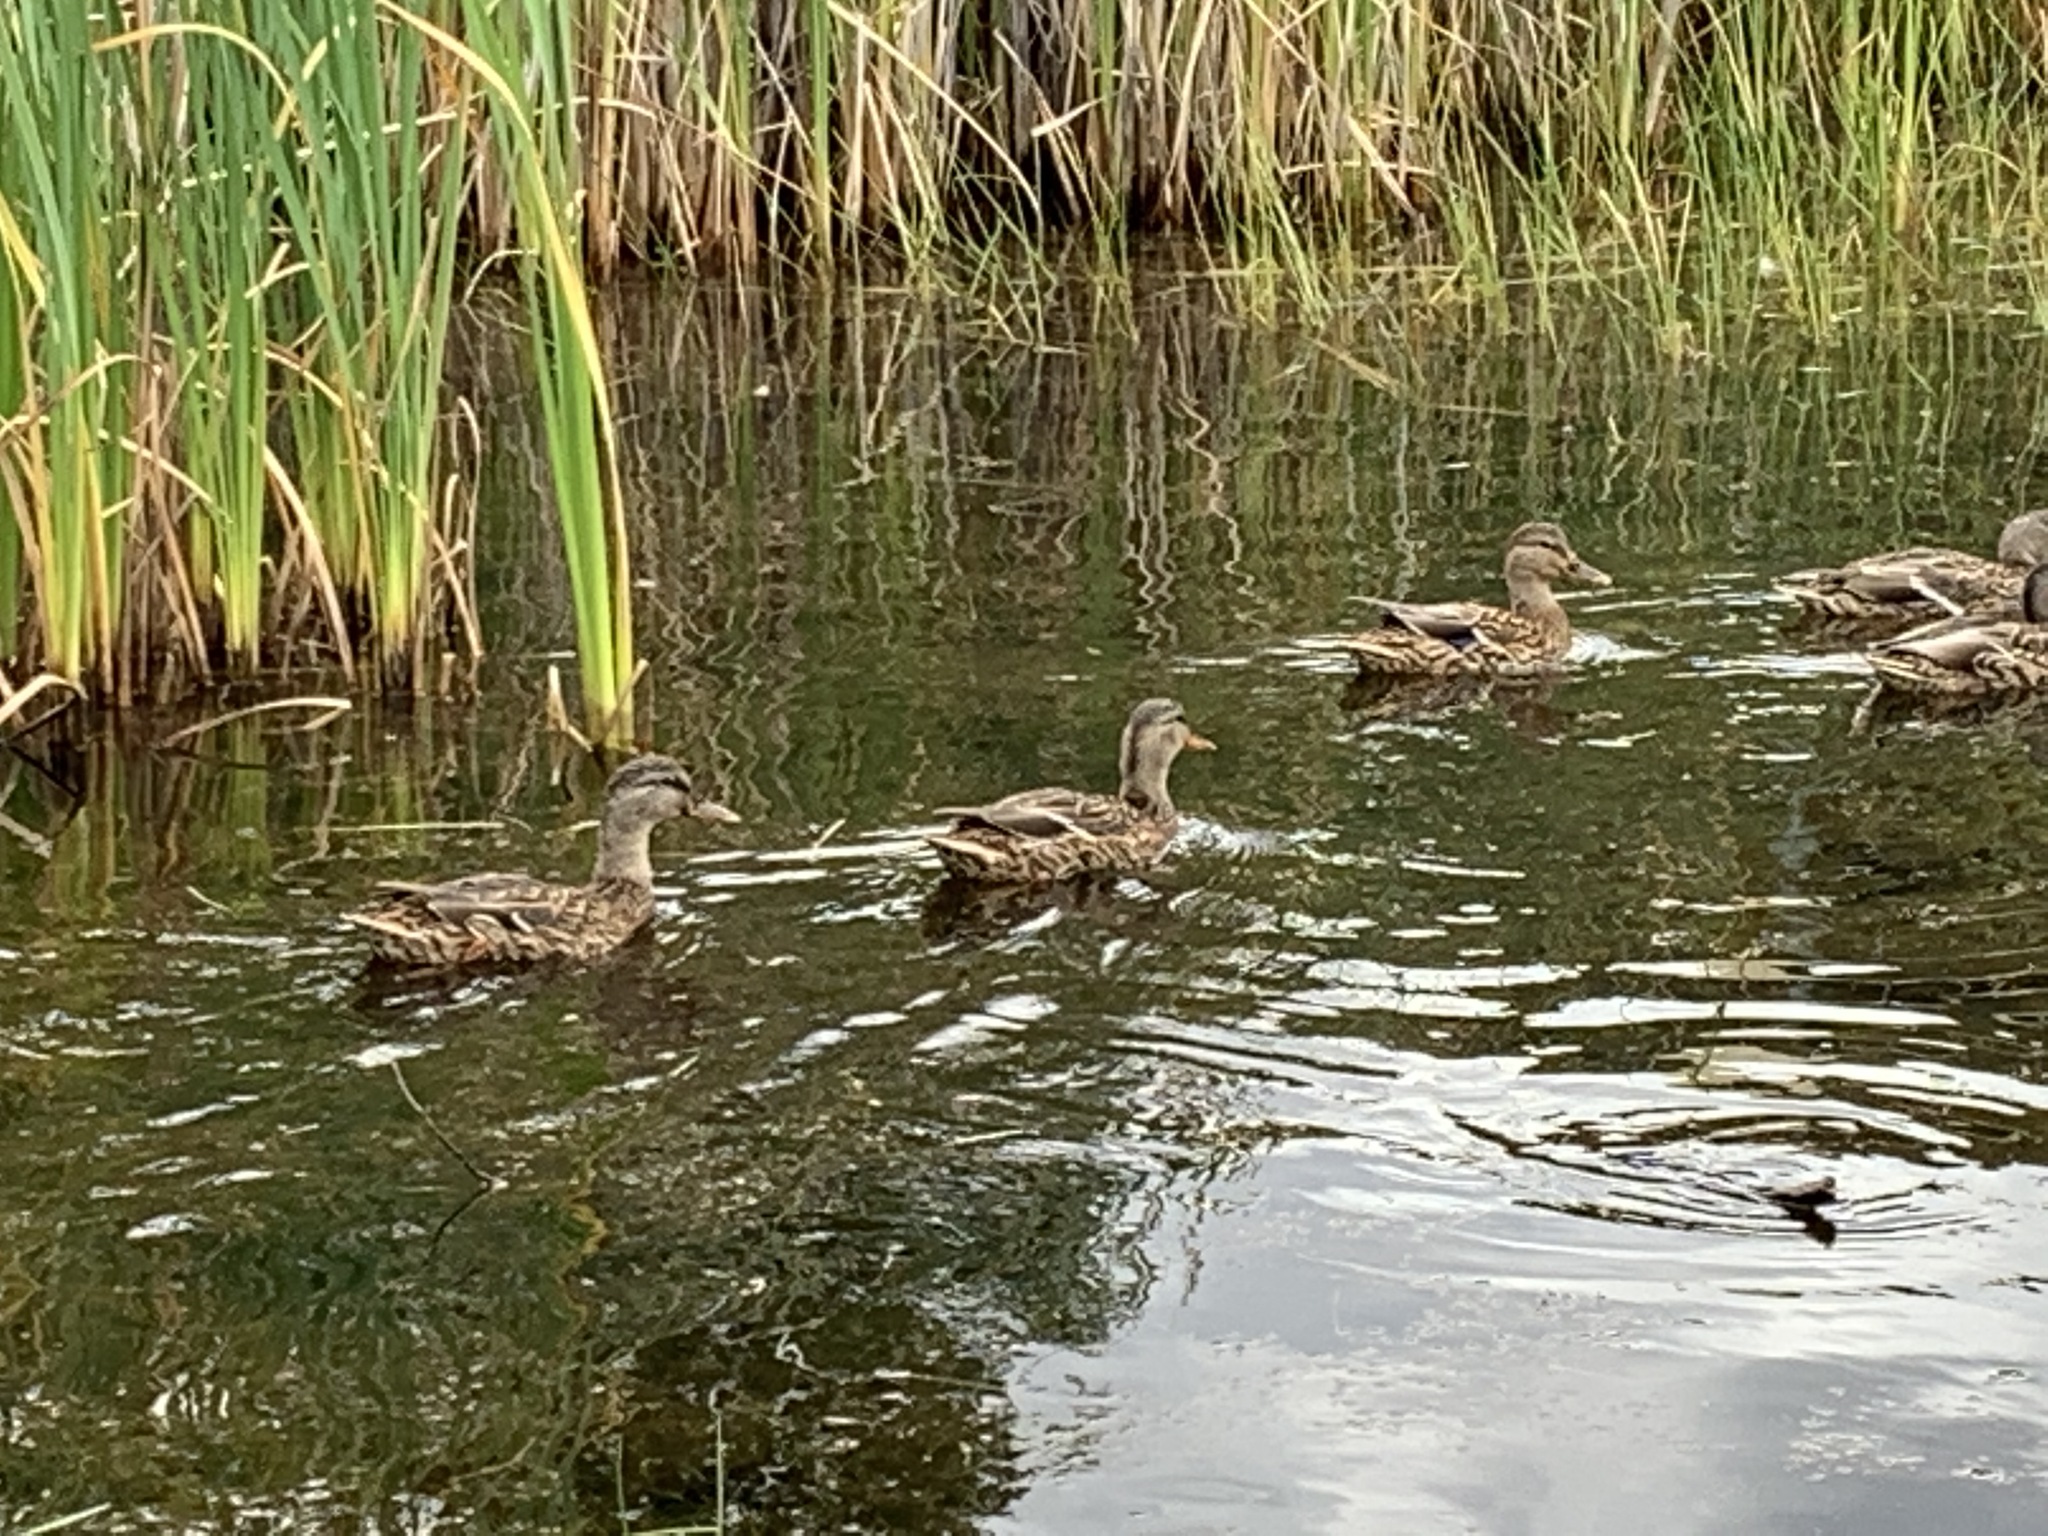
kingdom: Animalia
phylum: Chordata
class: Aves
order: Anseriformes
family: Anatidae
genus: Anas
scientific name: Anas platyrhynchos
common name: Mallard
